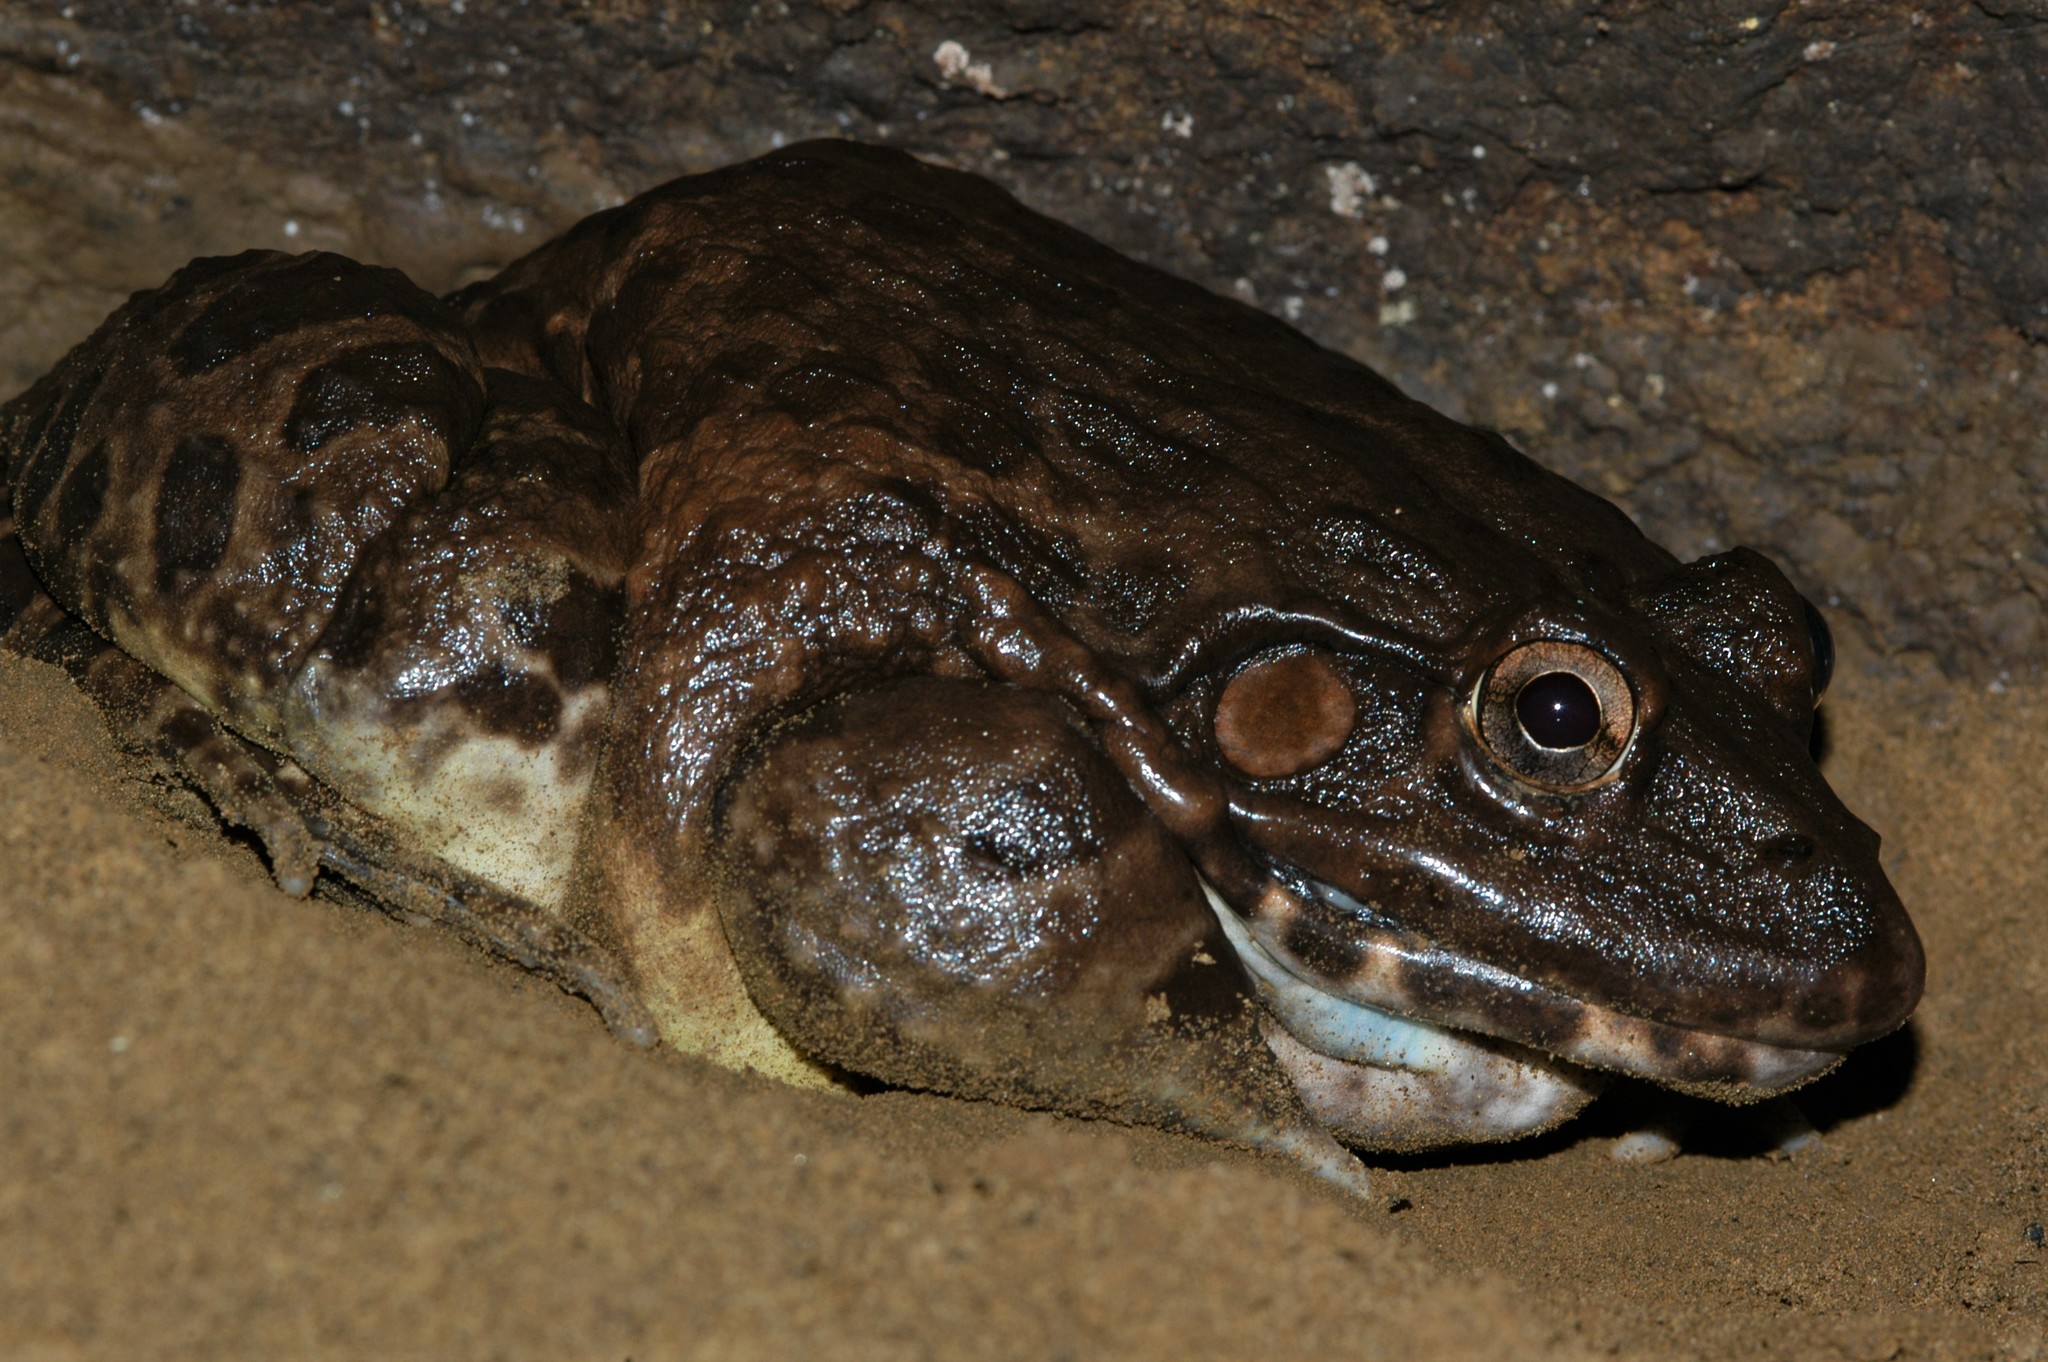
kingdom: Animalia
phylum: Chordata
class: Amphibia
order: Anura
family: Dicroglossidae
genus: Hoplobatrachus
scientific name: Hoplobatrachus tigerinus
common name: Indian bullfrog
